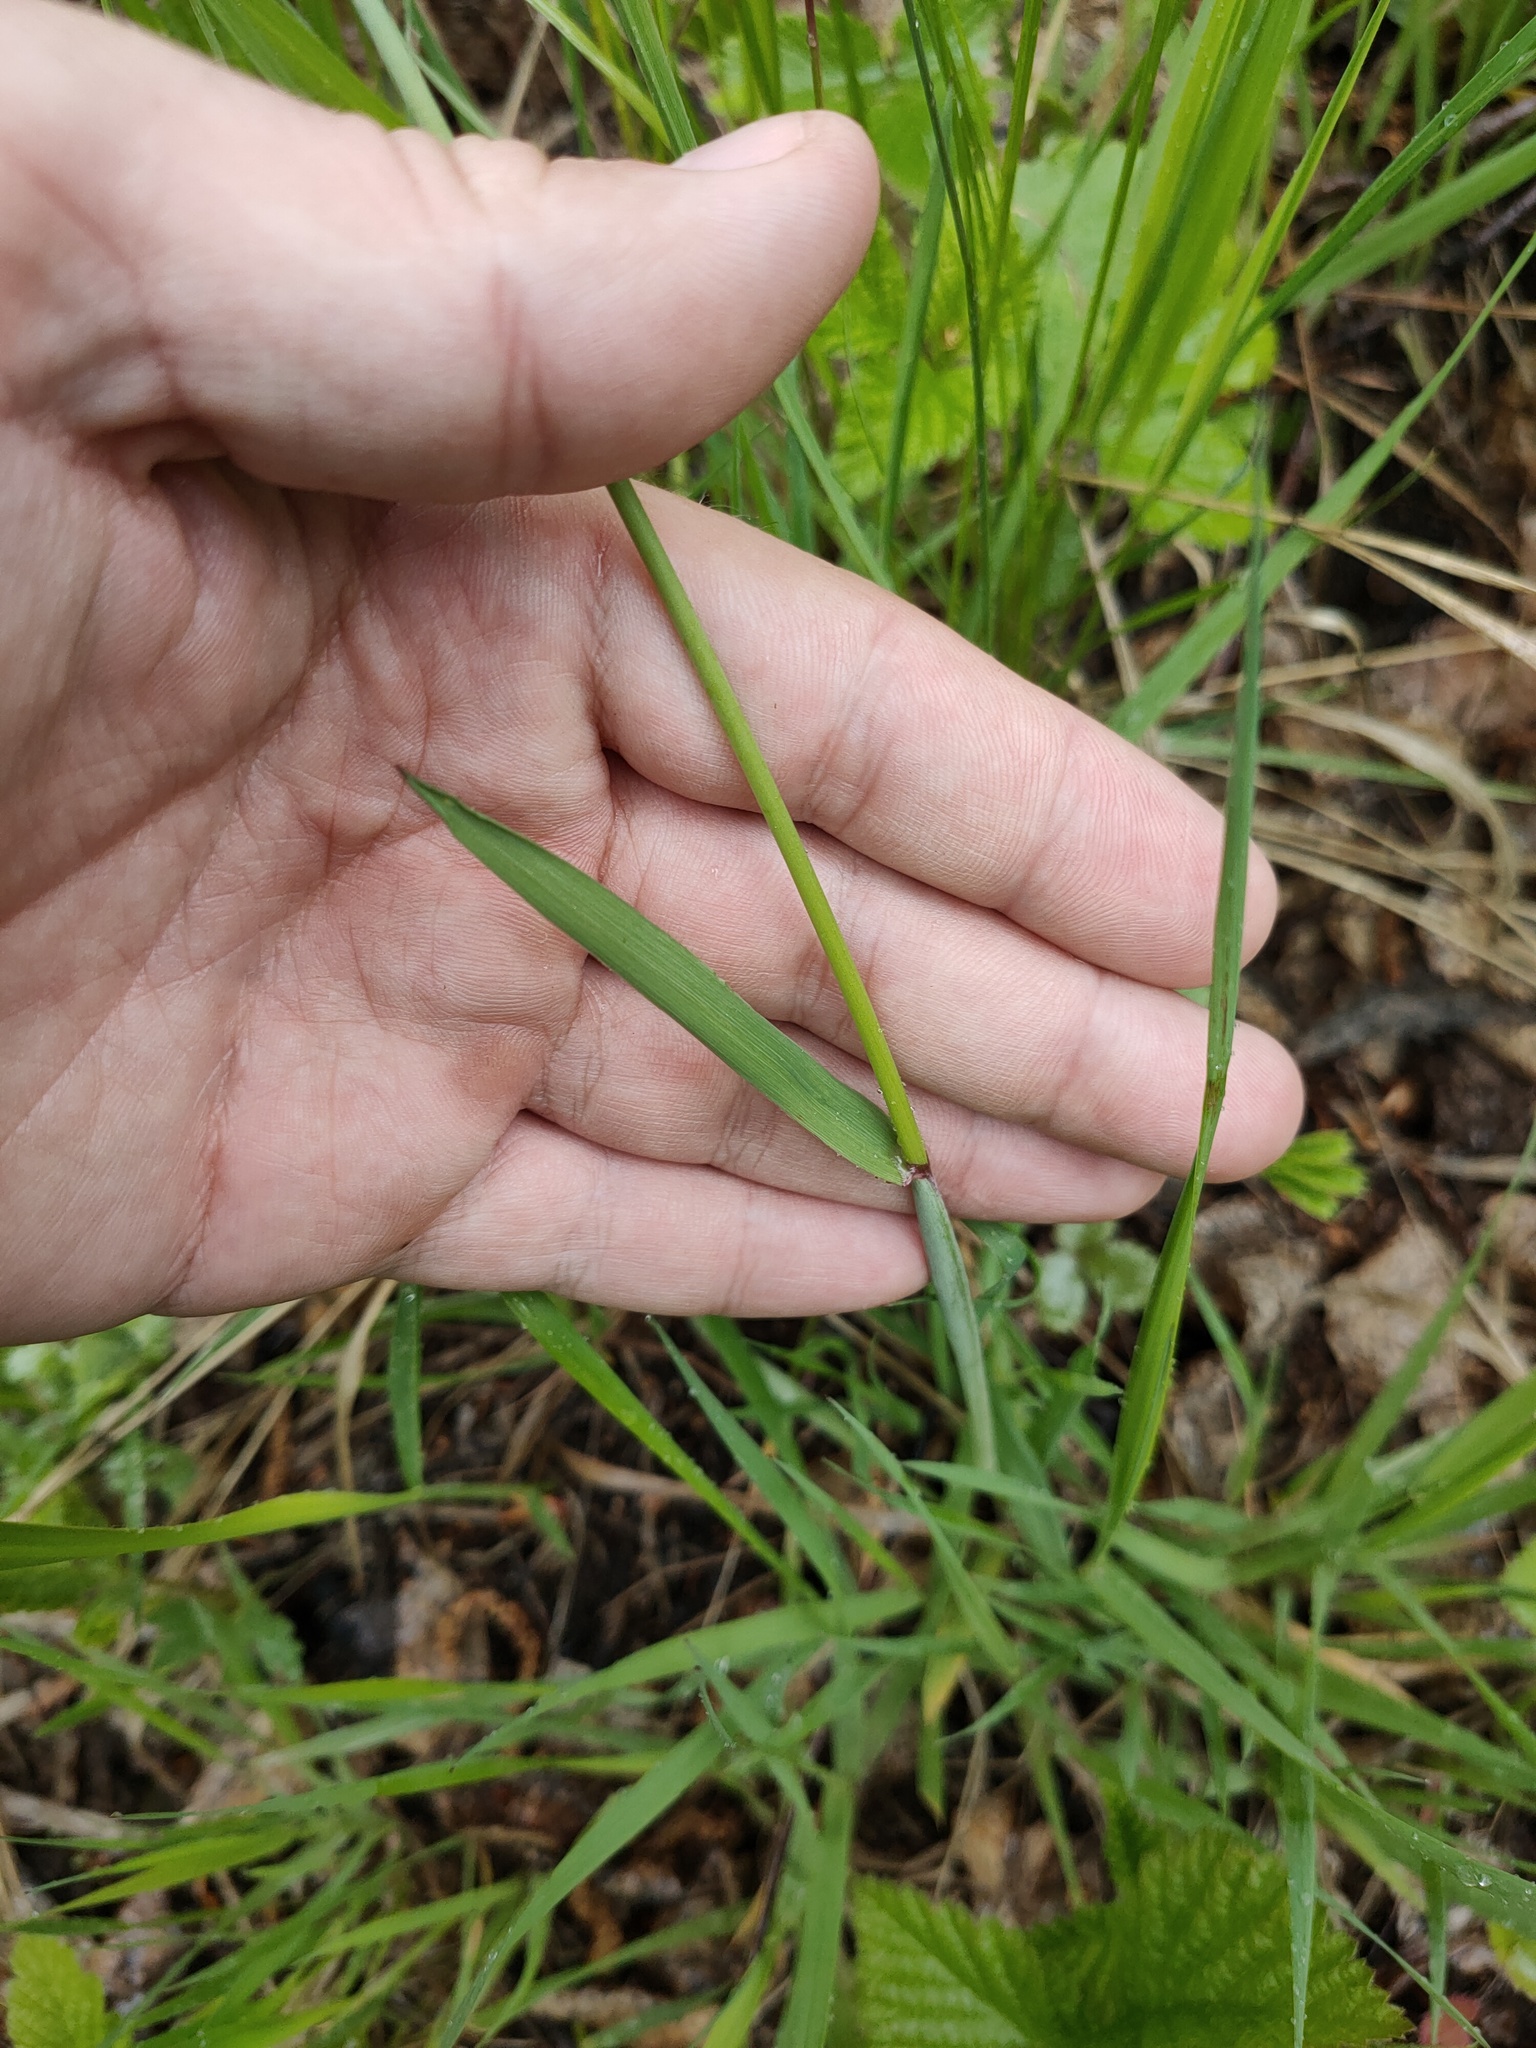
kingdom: Plantae
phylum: Tracheophyta
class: Liliopsida
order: Poales
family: Poaceae
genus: Alopecurus
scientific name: Alopecurus pratensis
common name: Meadow foxtail
